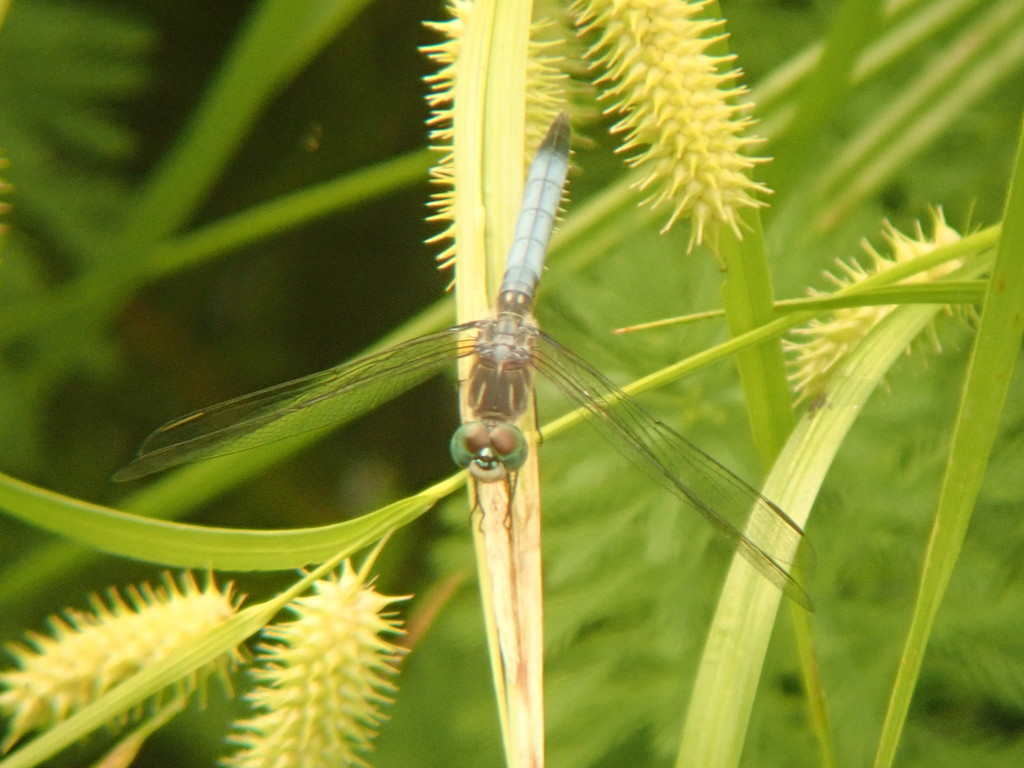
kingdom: Animalia
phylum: Arthropoda
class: Insecta
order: Odonata
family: Libellulidae
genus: Pachydiplax
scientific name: Pachydiplax longipennis
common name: Blue dasher
